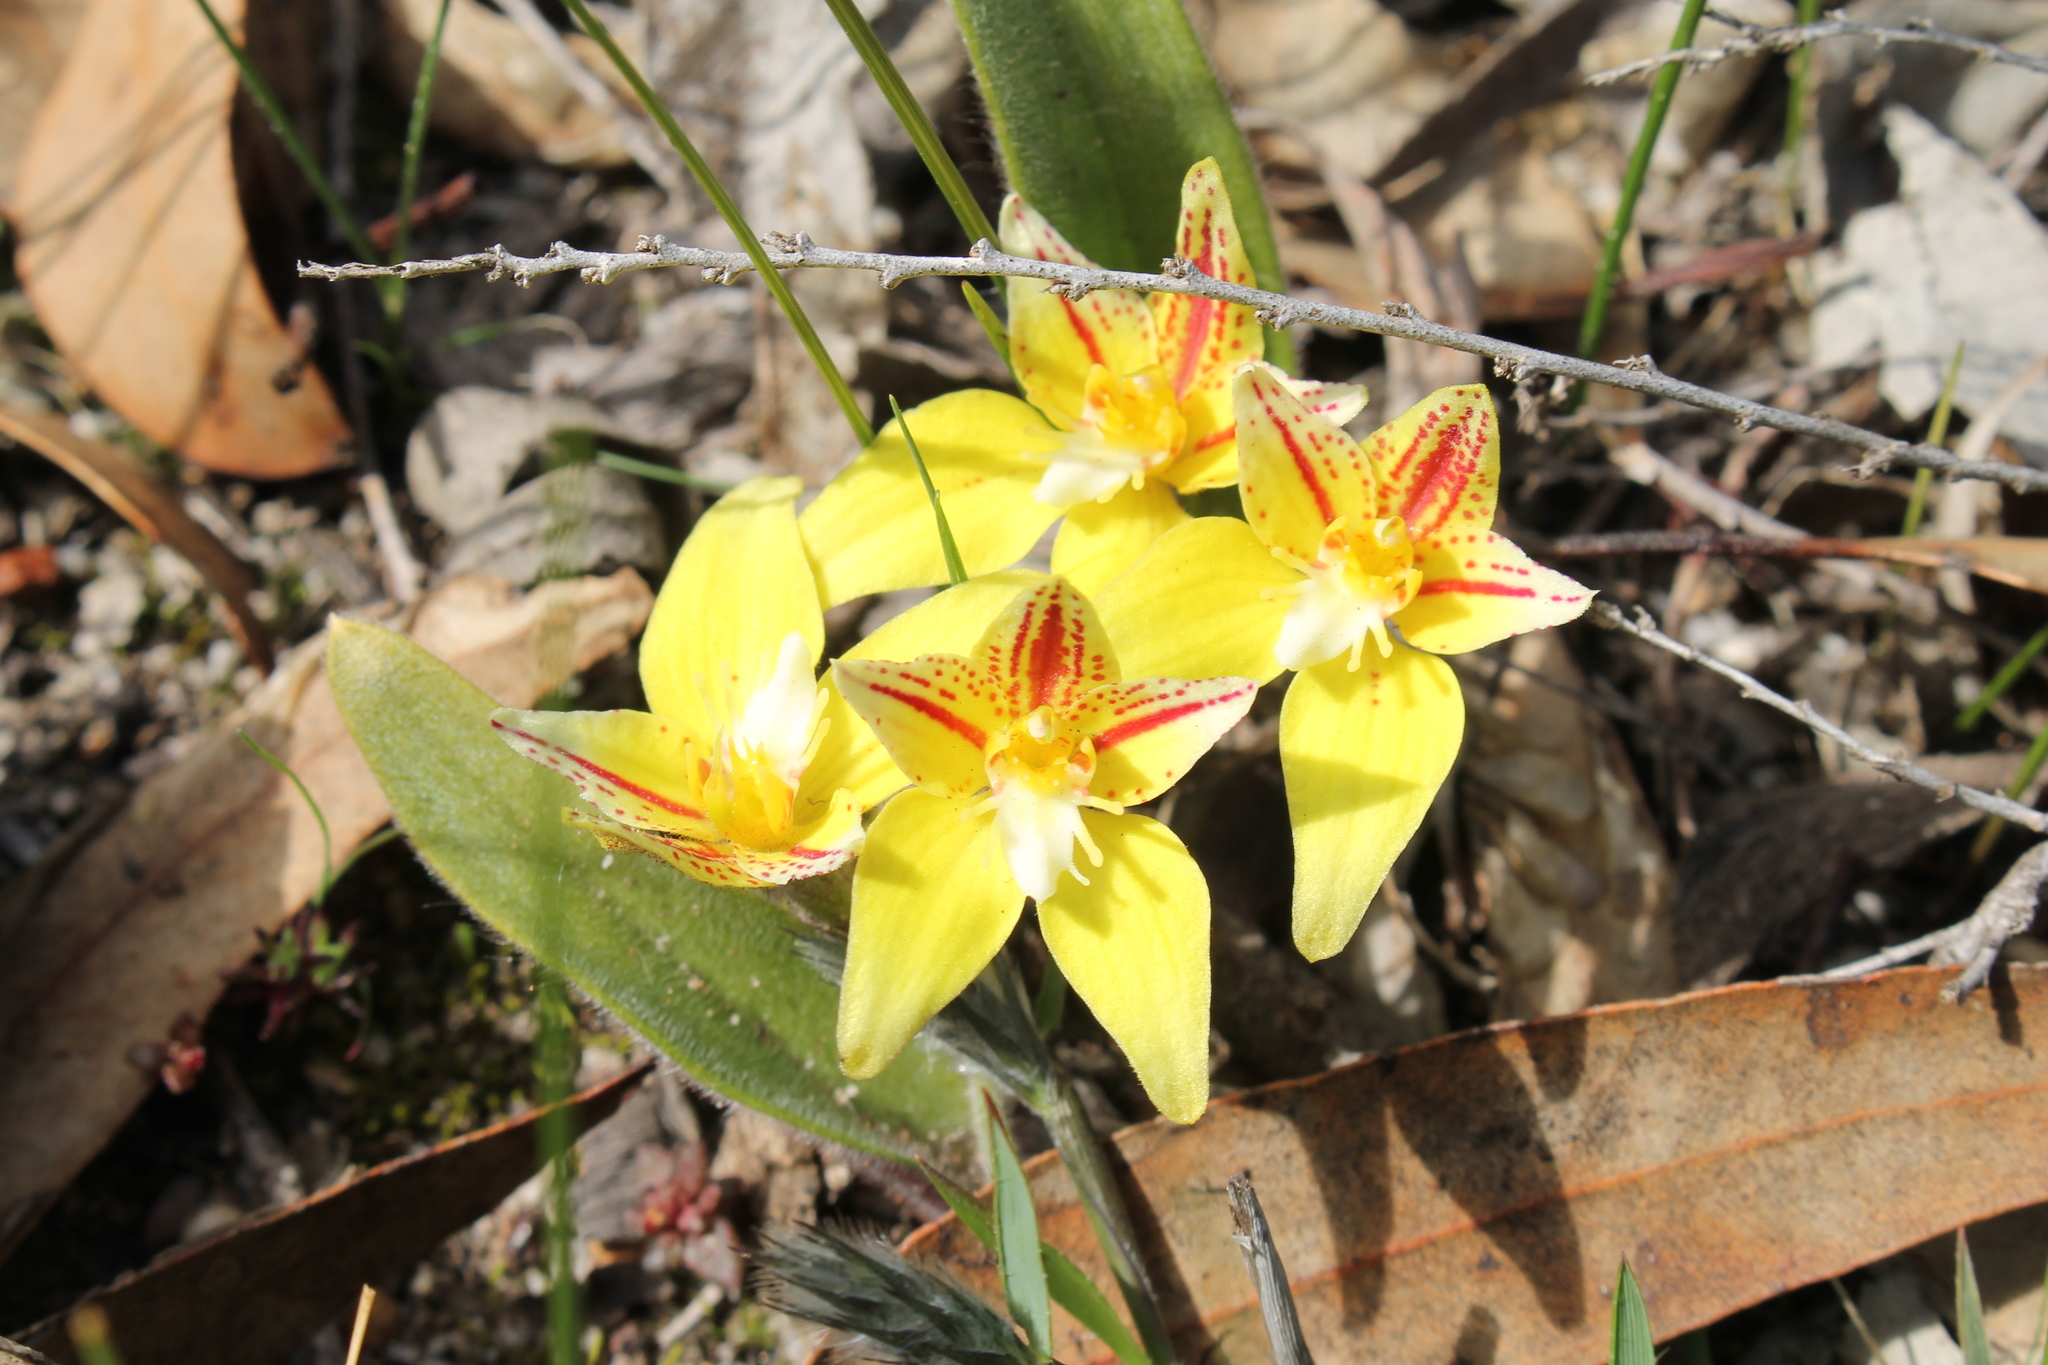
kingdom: Plantae
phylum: Tracheophyta
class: Liliopsida
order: Asparagales
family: Orchidaceae
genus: Caladenia
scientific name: Caladenia flava
